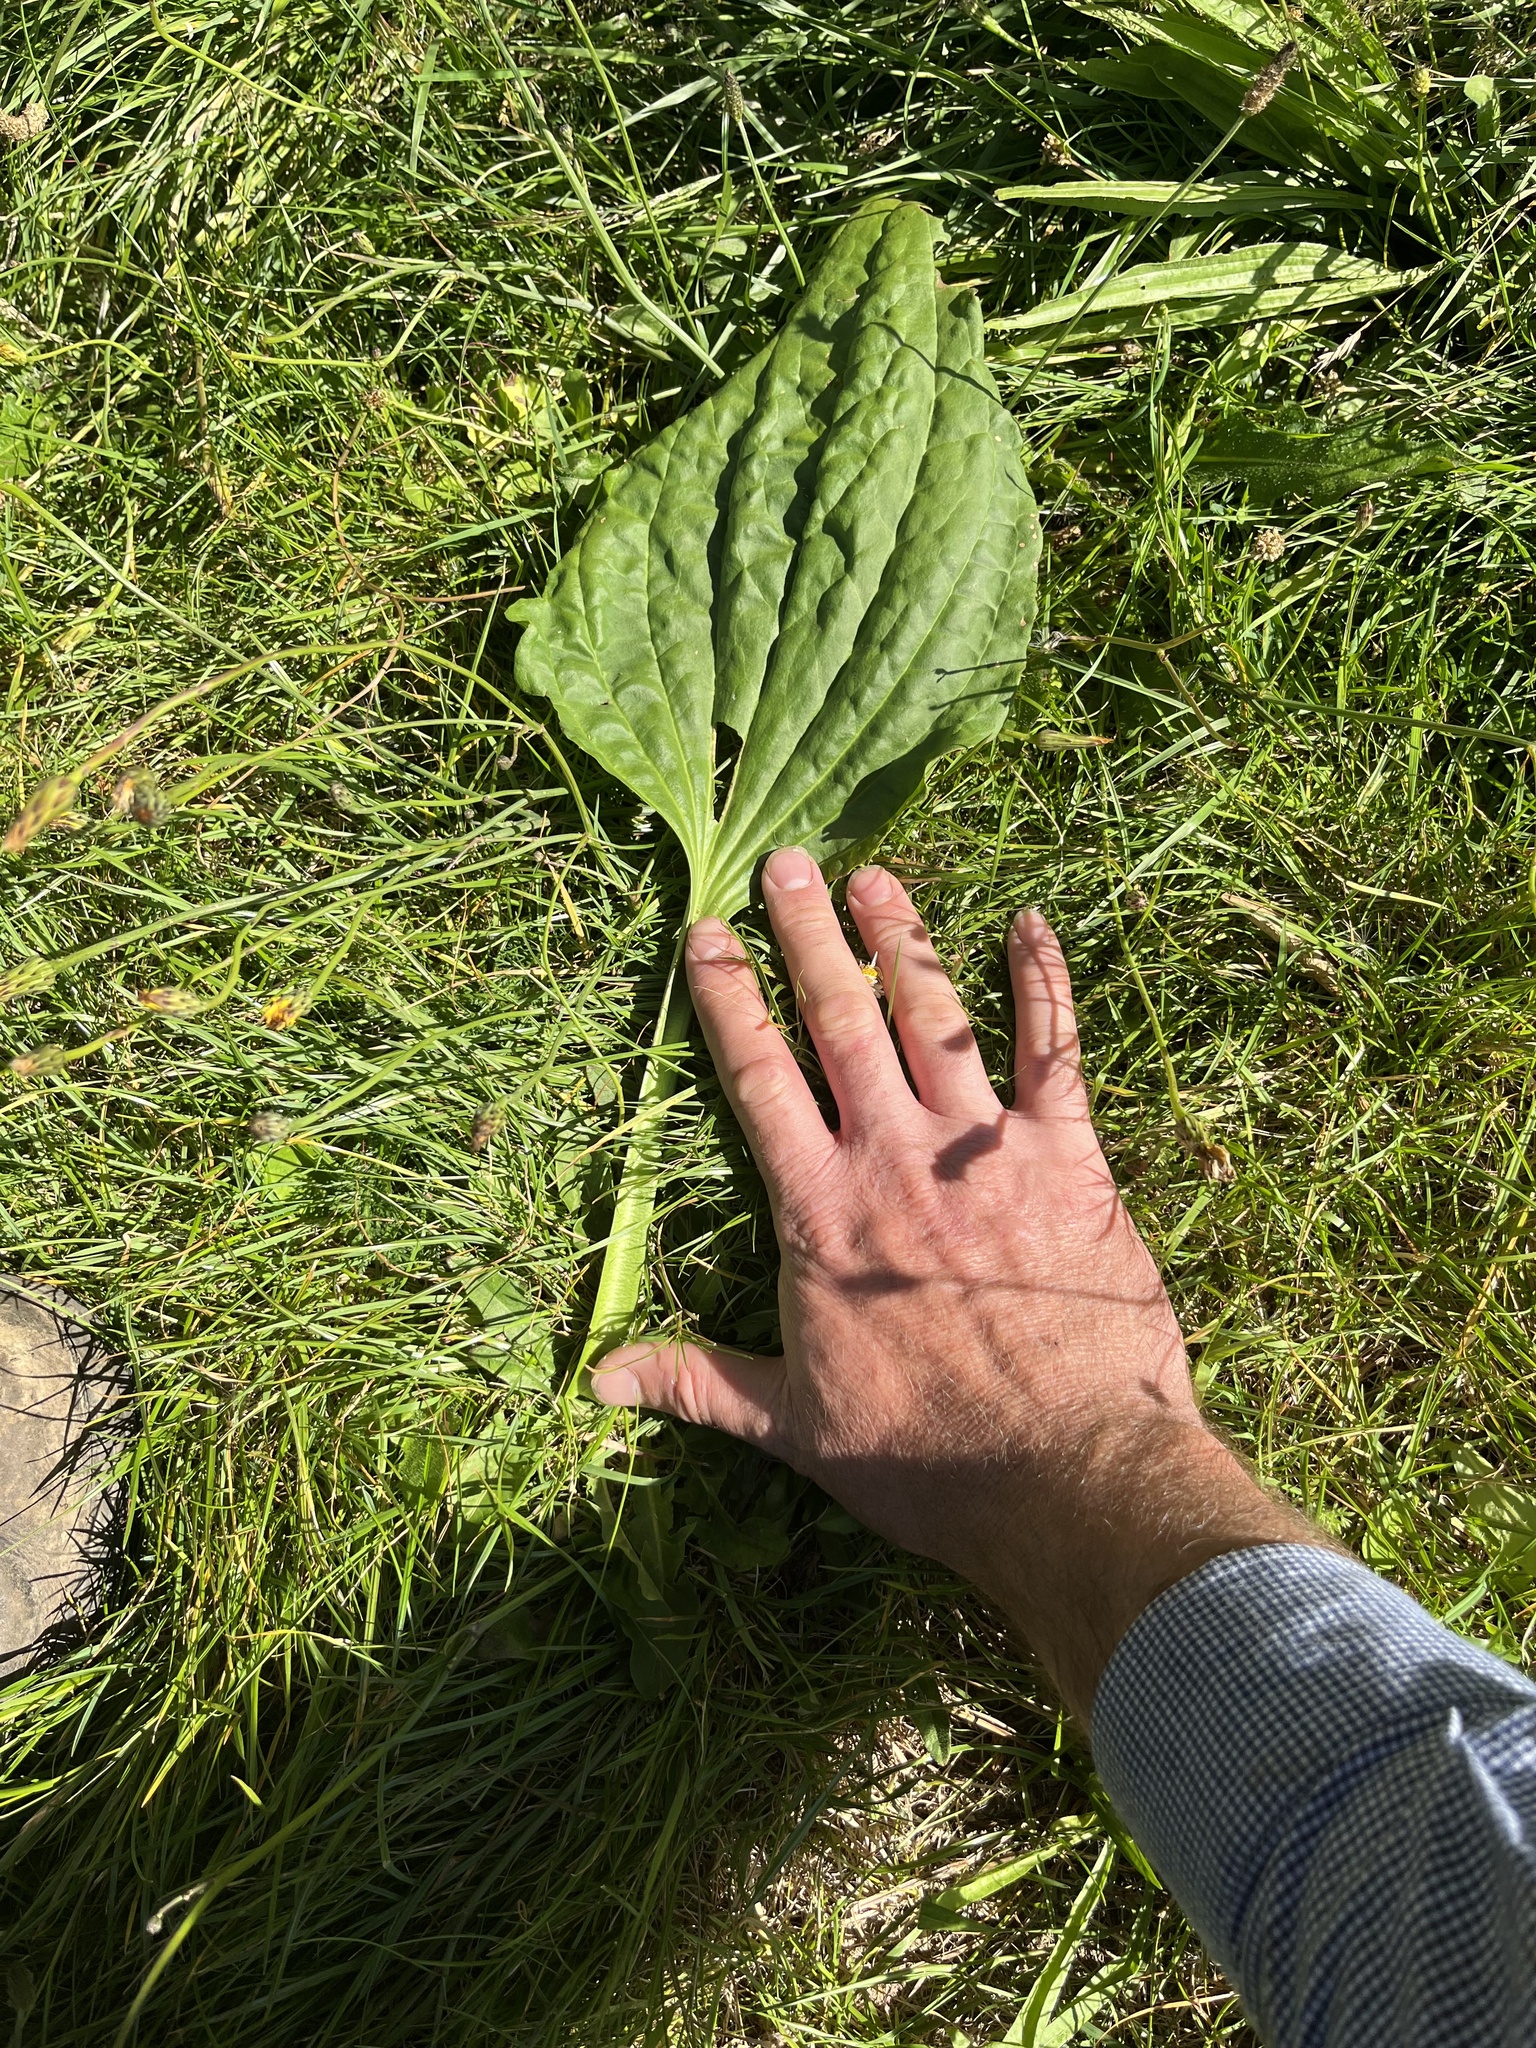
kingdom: Plantae
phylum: Tracheophyta
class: Magnoliopsida
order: Lamiales
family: Plantaginaceae
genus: Plantago
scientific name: Plantago major
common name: Common plantain
